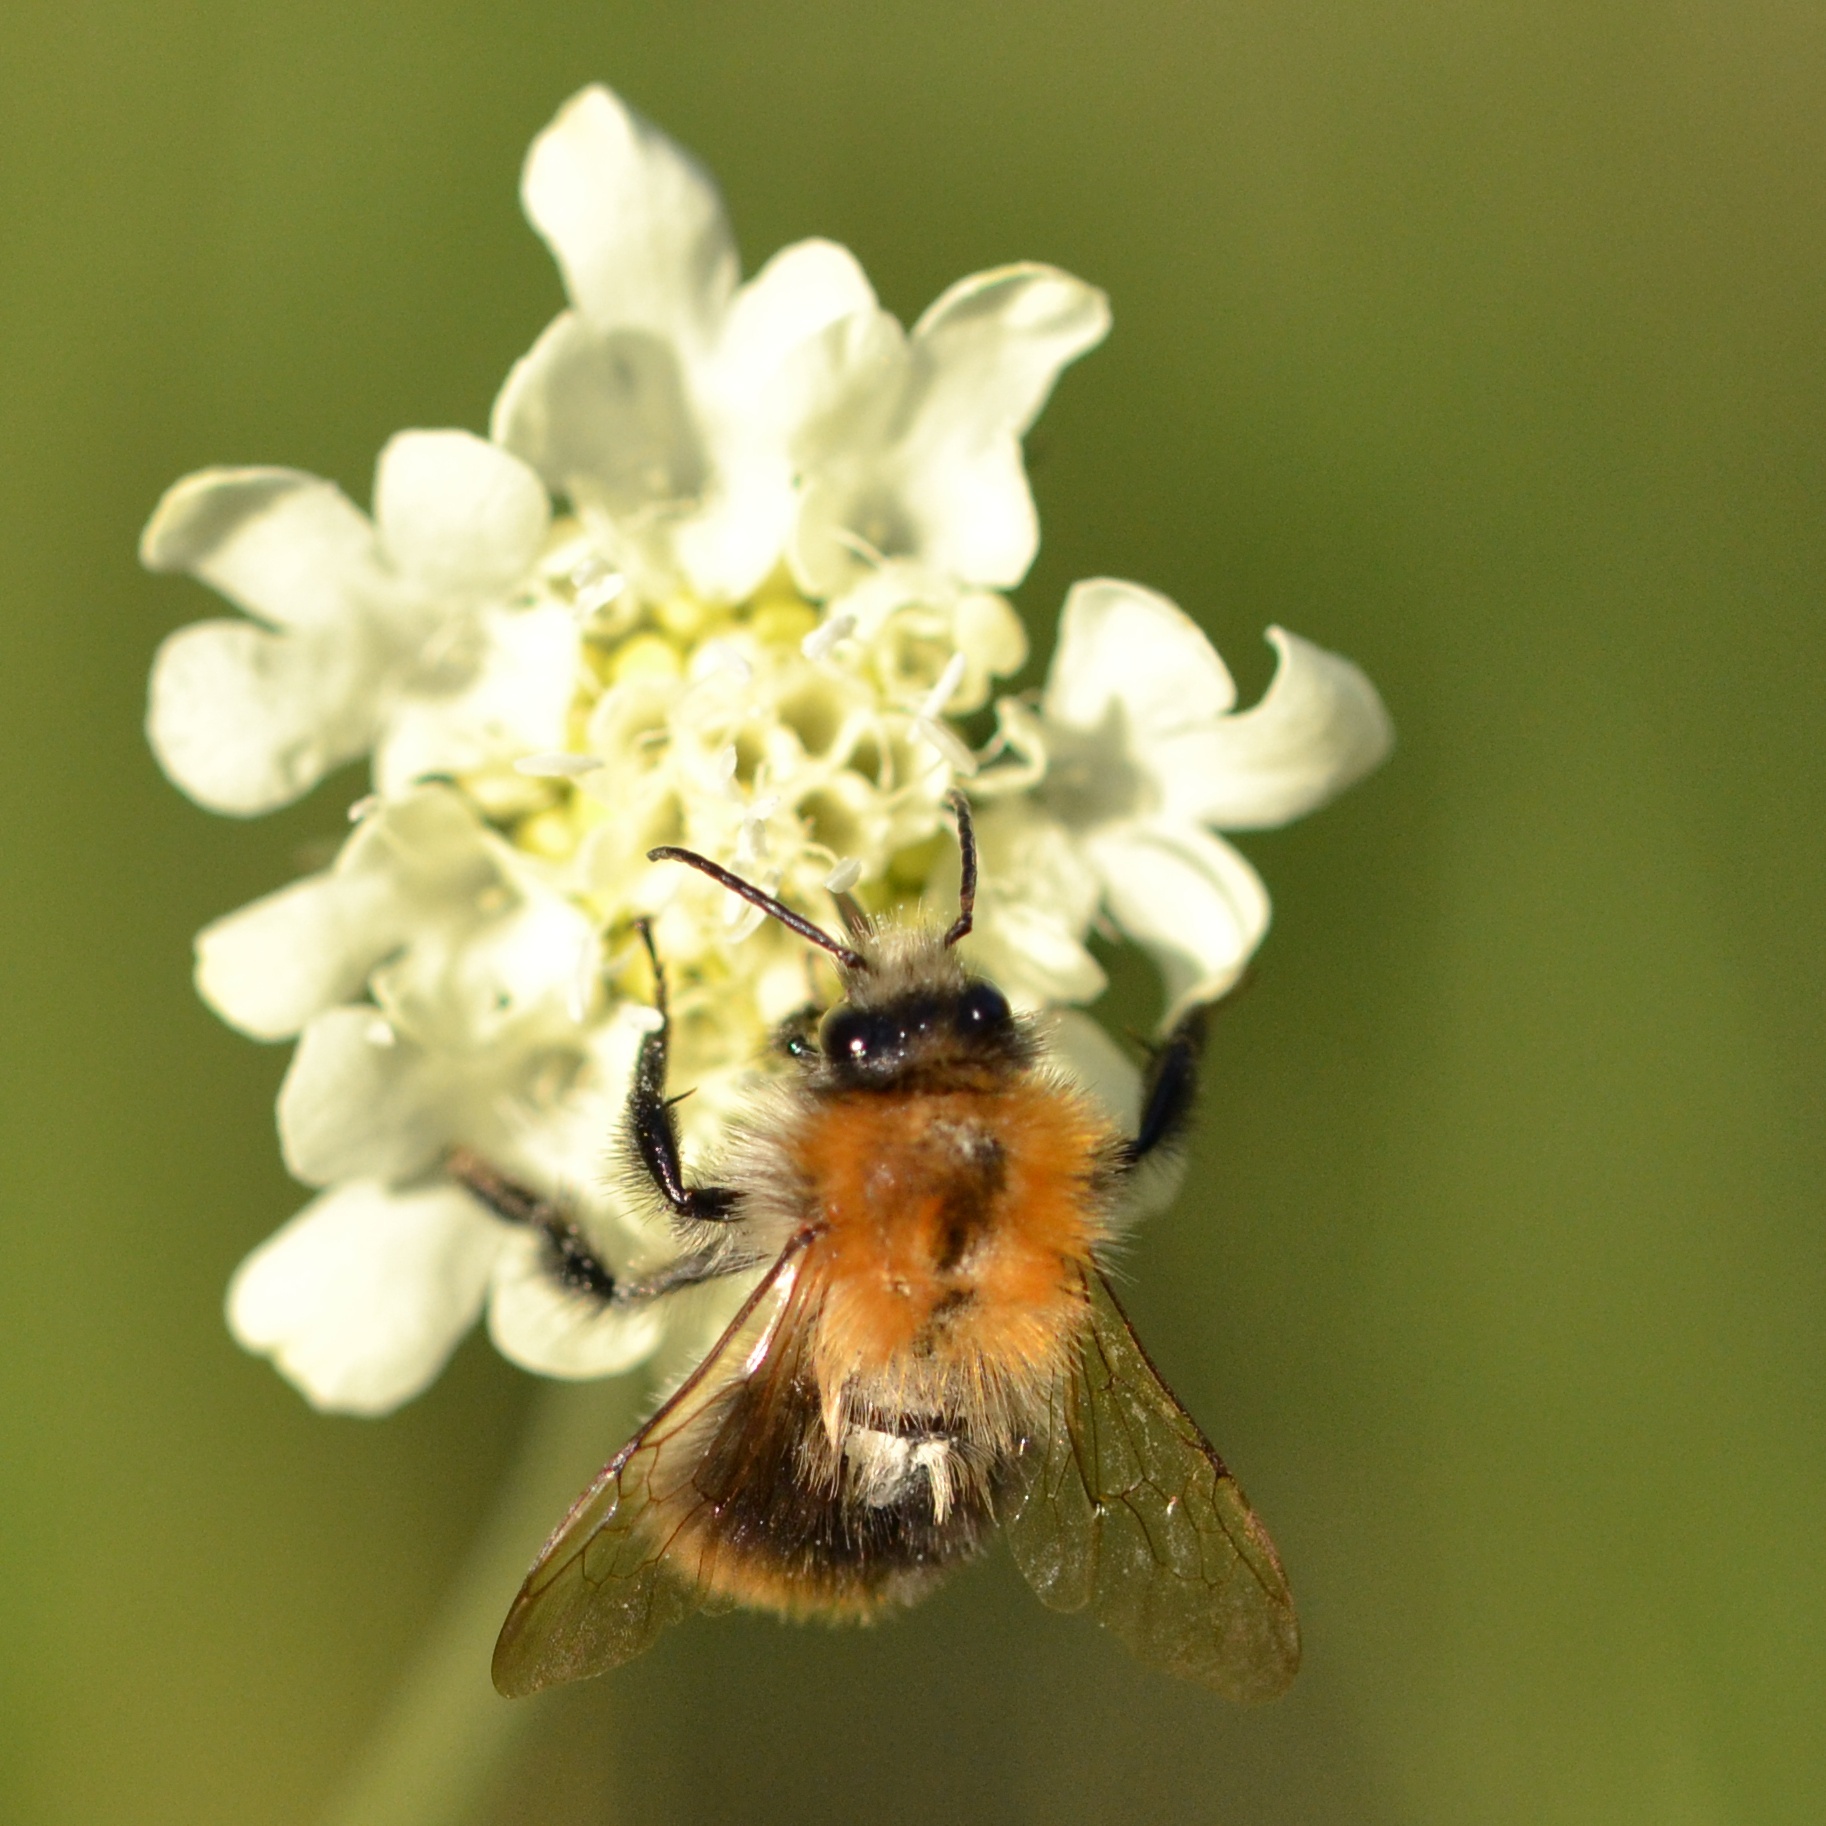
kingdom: Animalia
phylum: Arthropoda
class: Insecta
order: Hymenoptera
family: Apidae
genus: Bombus
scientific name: Bombus pascuorum
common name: Common carder bee
